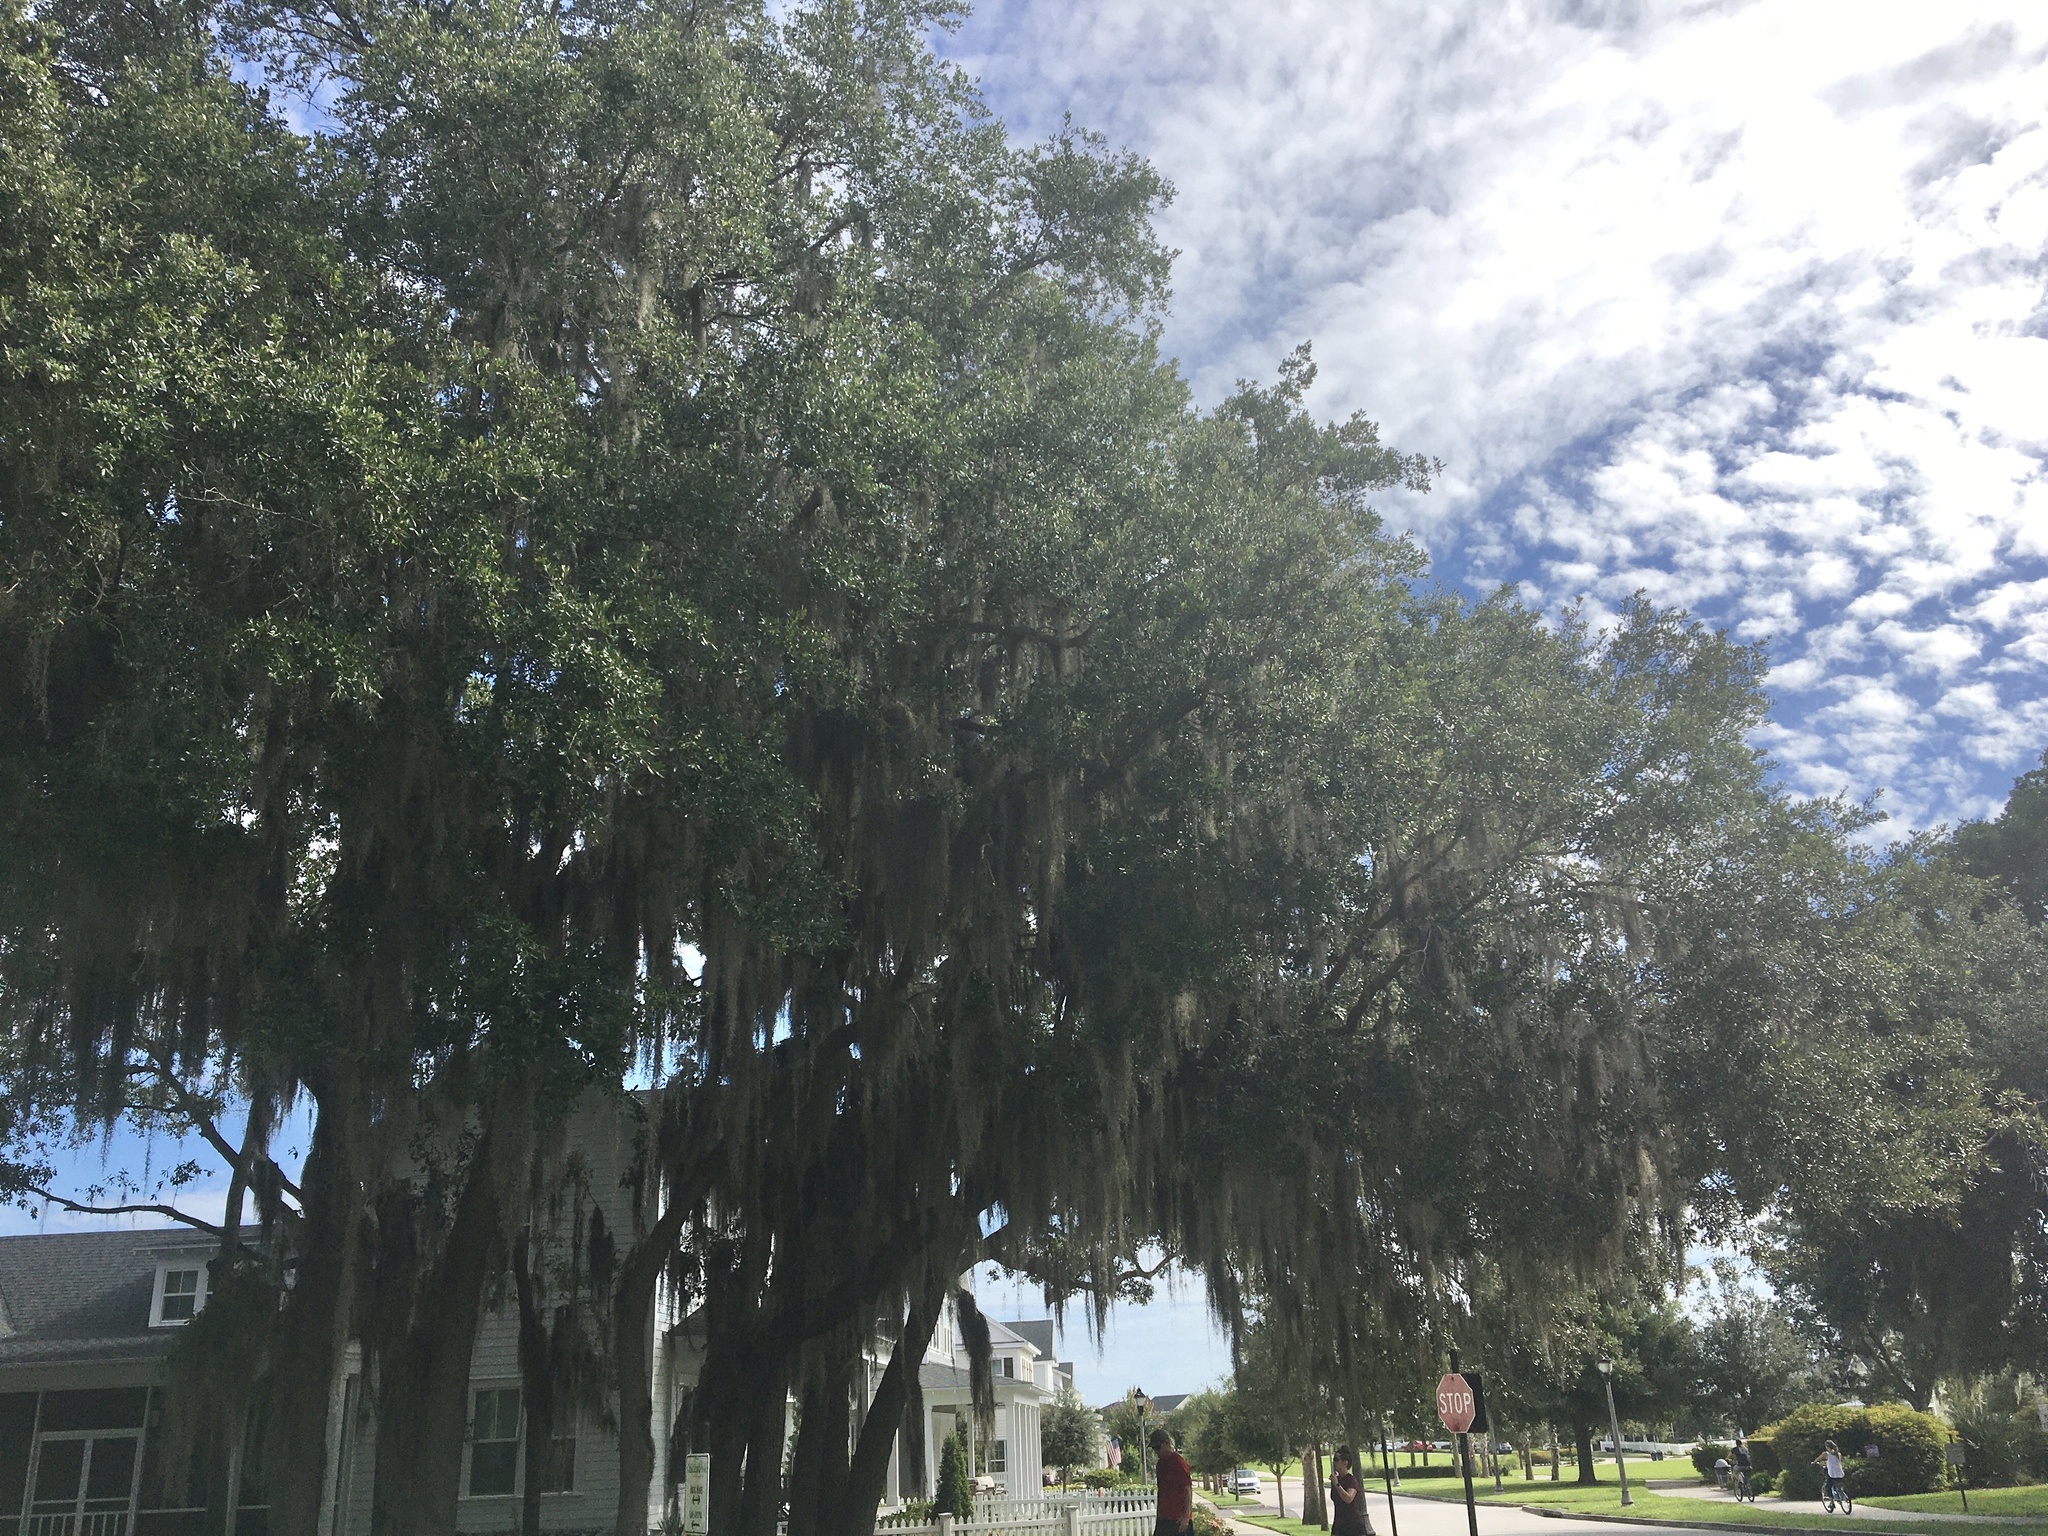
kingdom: Plantae
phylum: Tracheophyta
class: Liliopsida
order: Poales
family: Bromeliaceae
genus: Tillandsia
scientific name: Tillandsia usneoides
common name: Spanish moss
